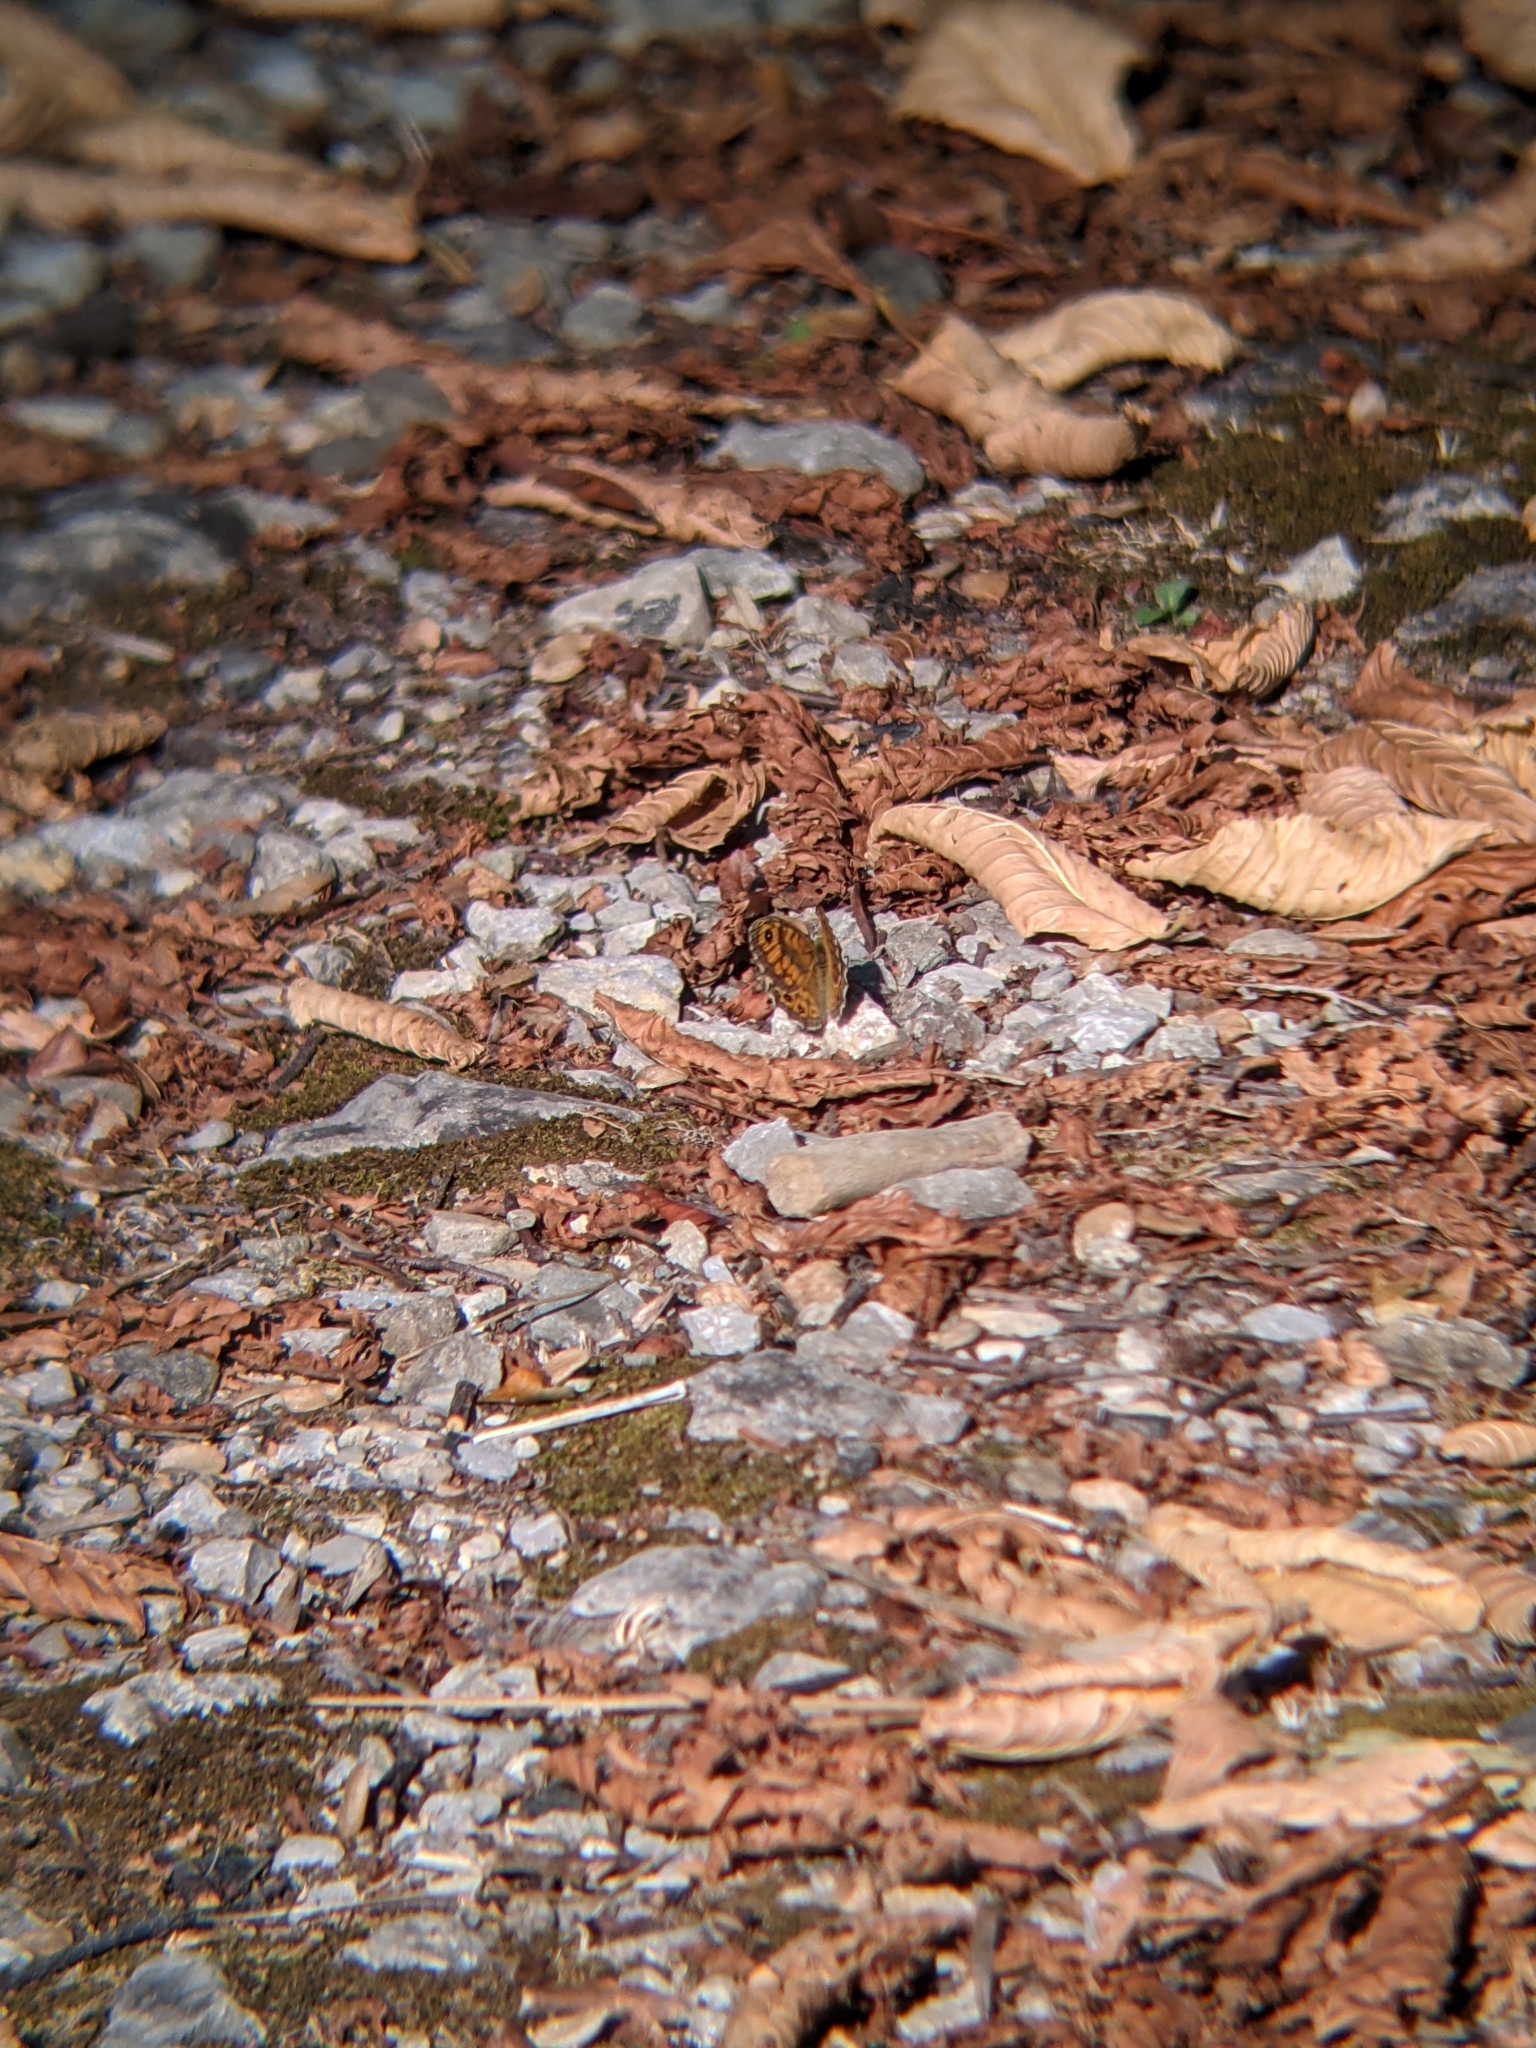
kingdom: Animalia
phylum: Arthropoda
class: Insecta
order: Lepidoptera
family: Nymphalidae
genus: Pararge
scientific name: Pararge Lasiommata megera
